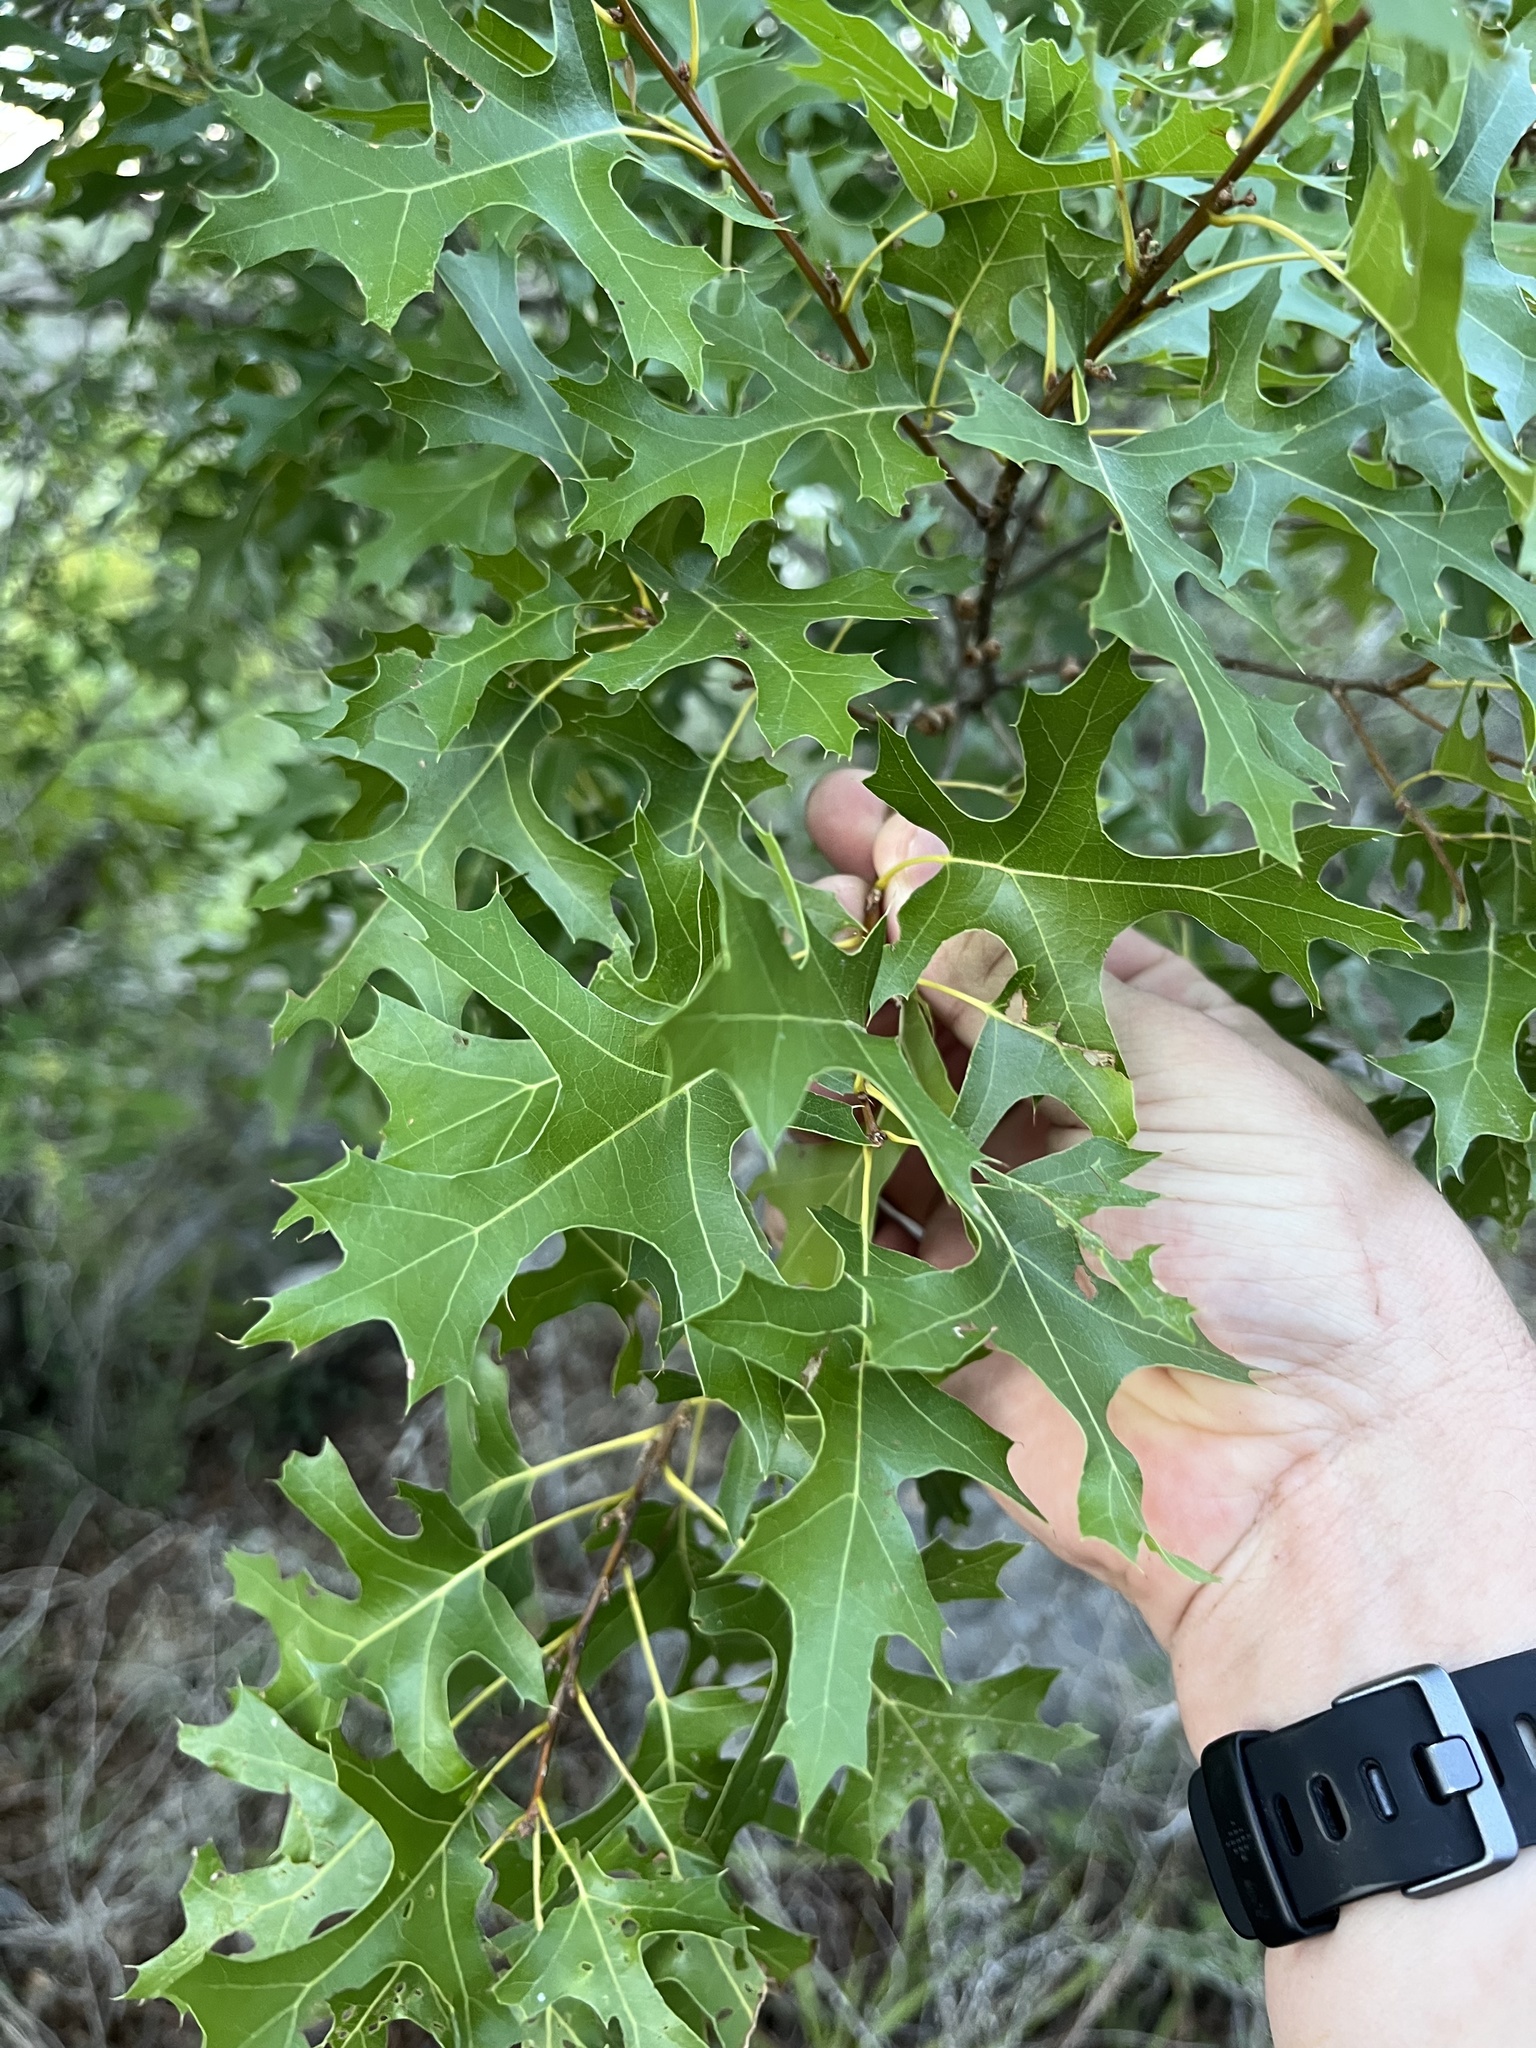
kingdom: Plantae
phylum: Tracheophyta
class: Magnoliopsida
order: Fagales
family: Fagaceae
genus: Quercus
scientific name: Quercus buckleyi
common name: Buckley oak
